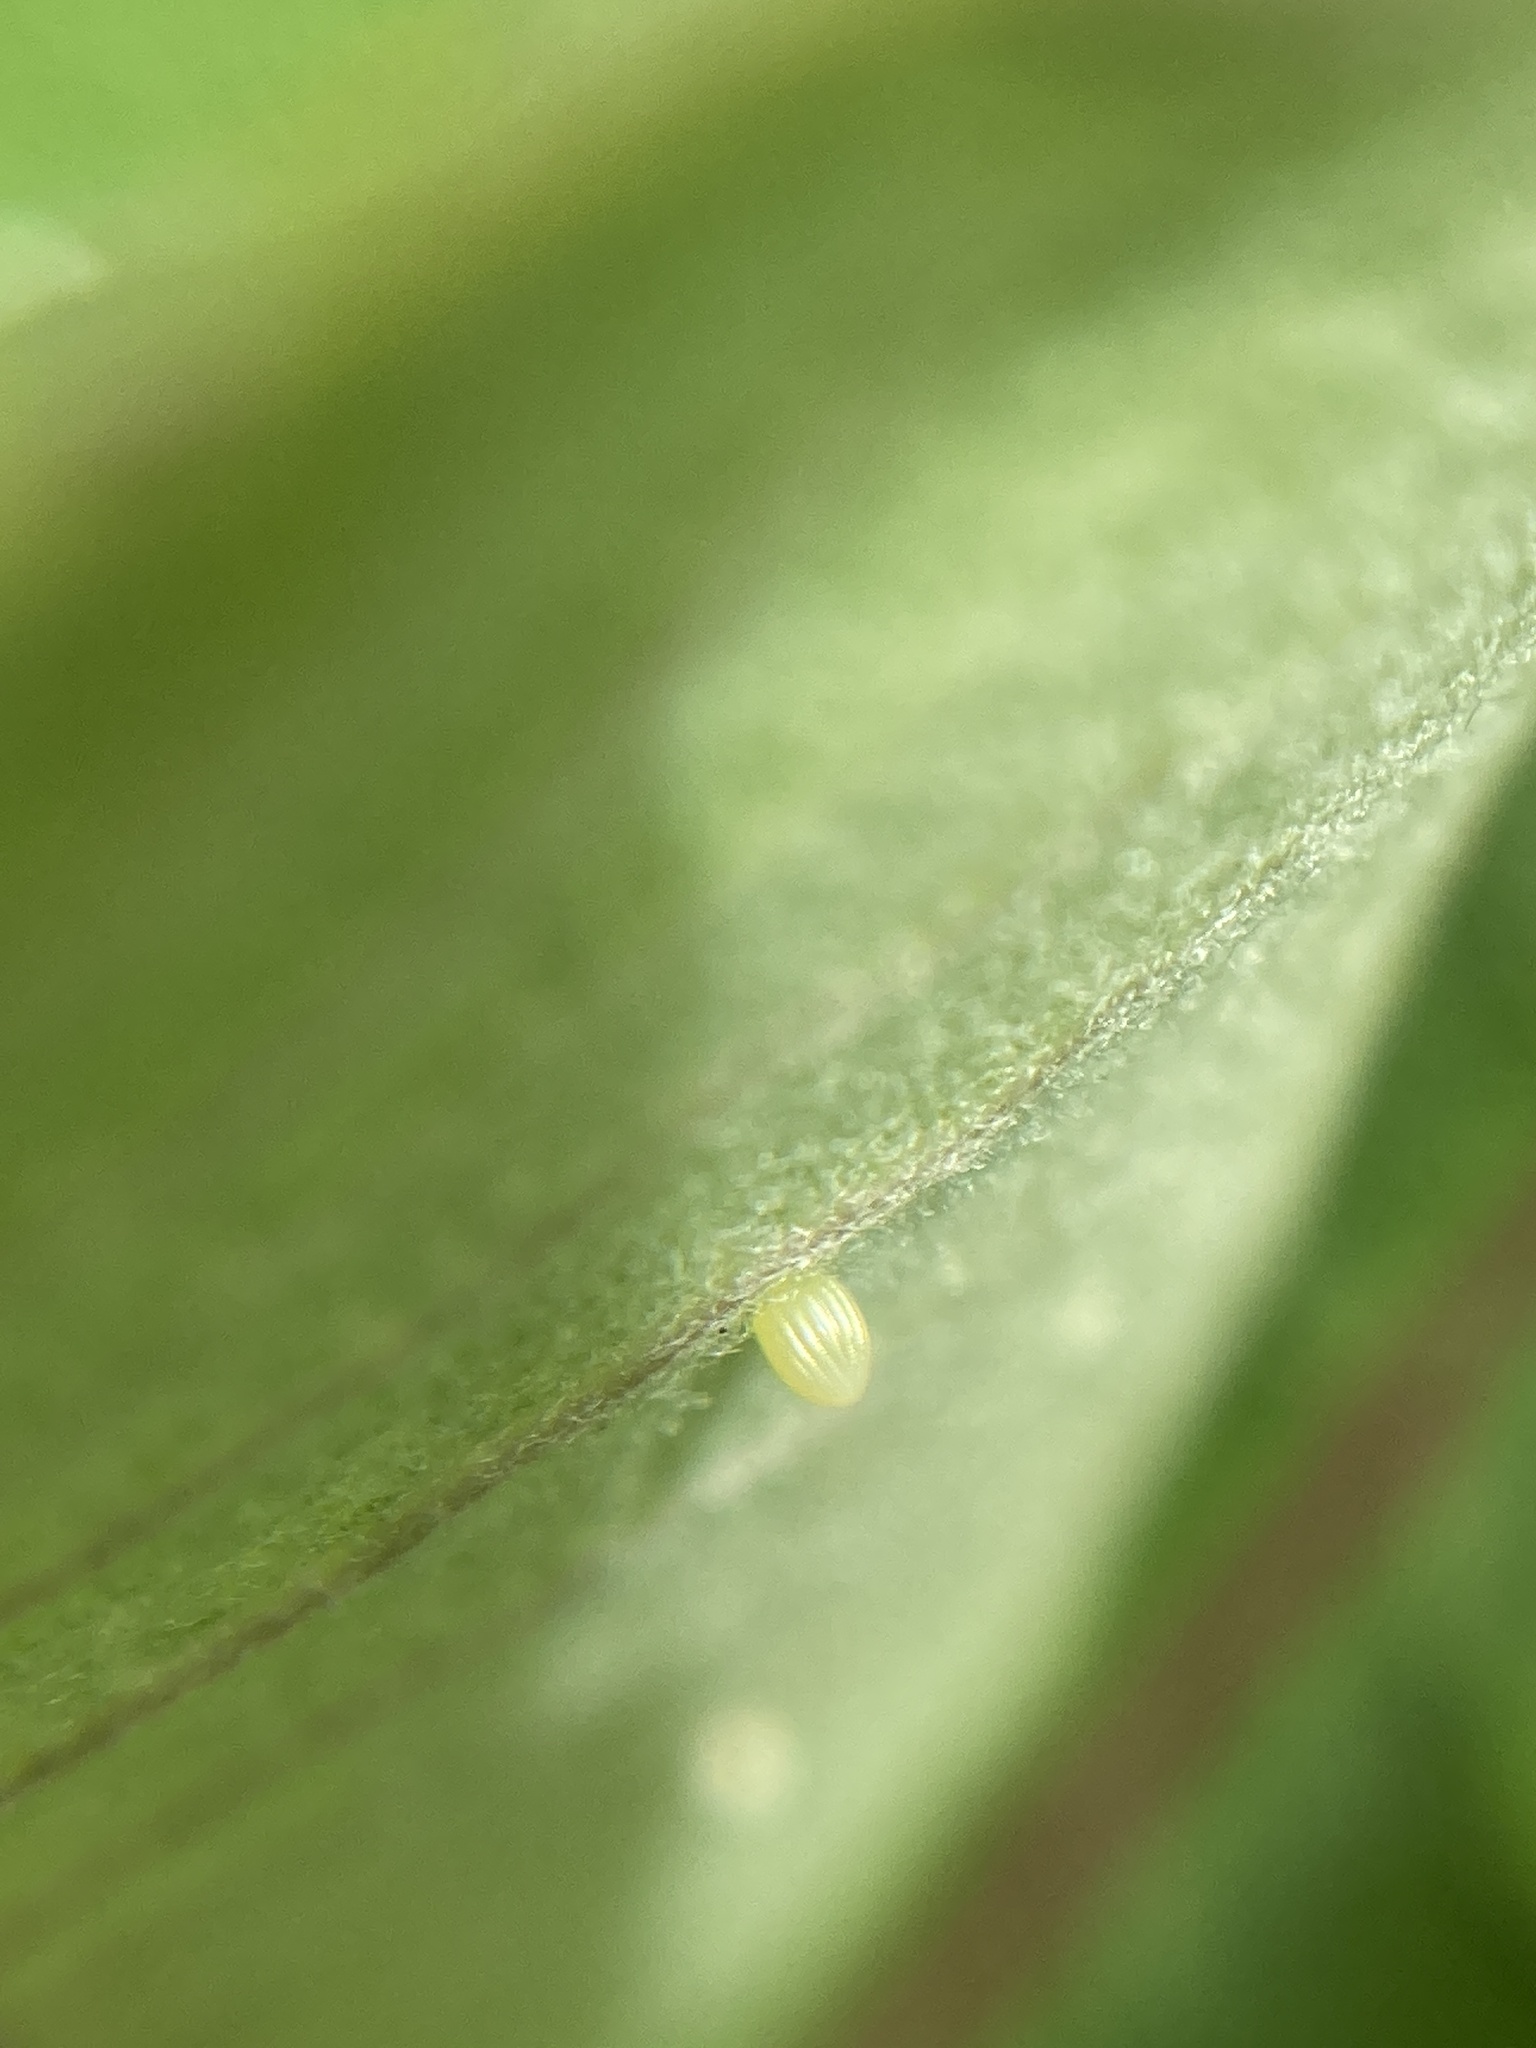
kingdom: Animalia
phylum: Arthropoda
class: Insecta
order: Lepidoptera
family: Nymphalidae
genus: Danaus
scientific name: Danaus plexippus
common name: Monarch
